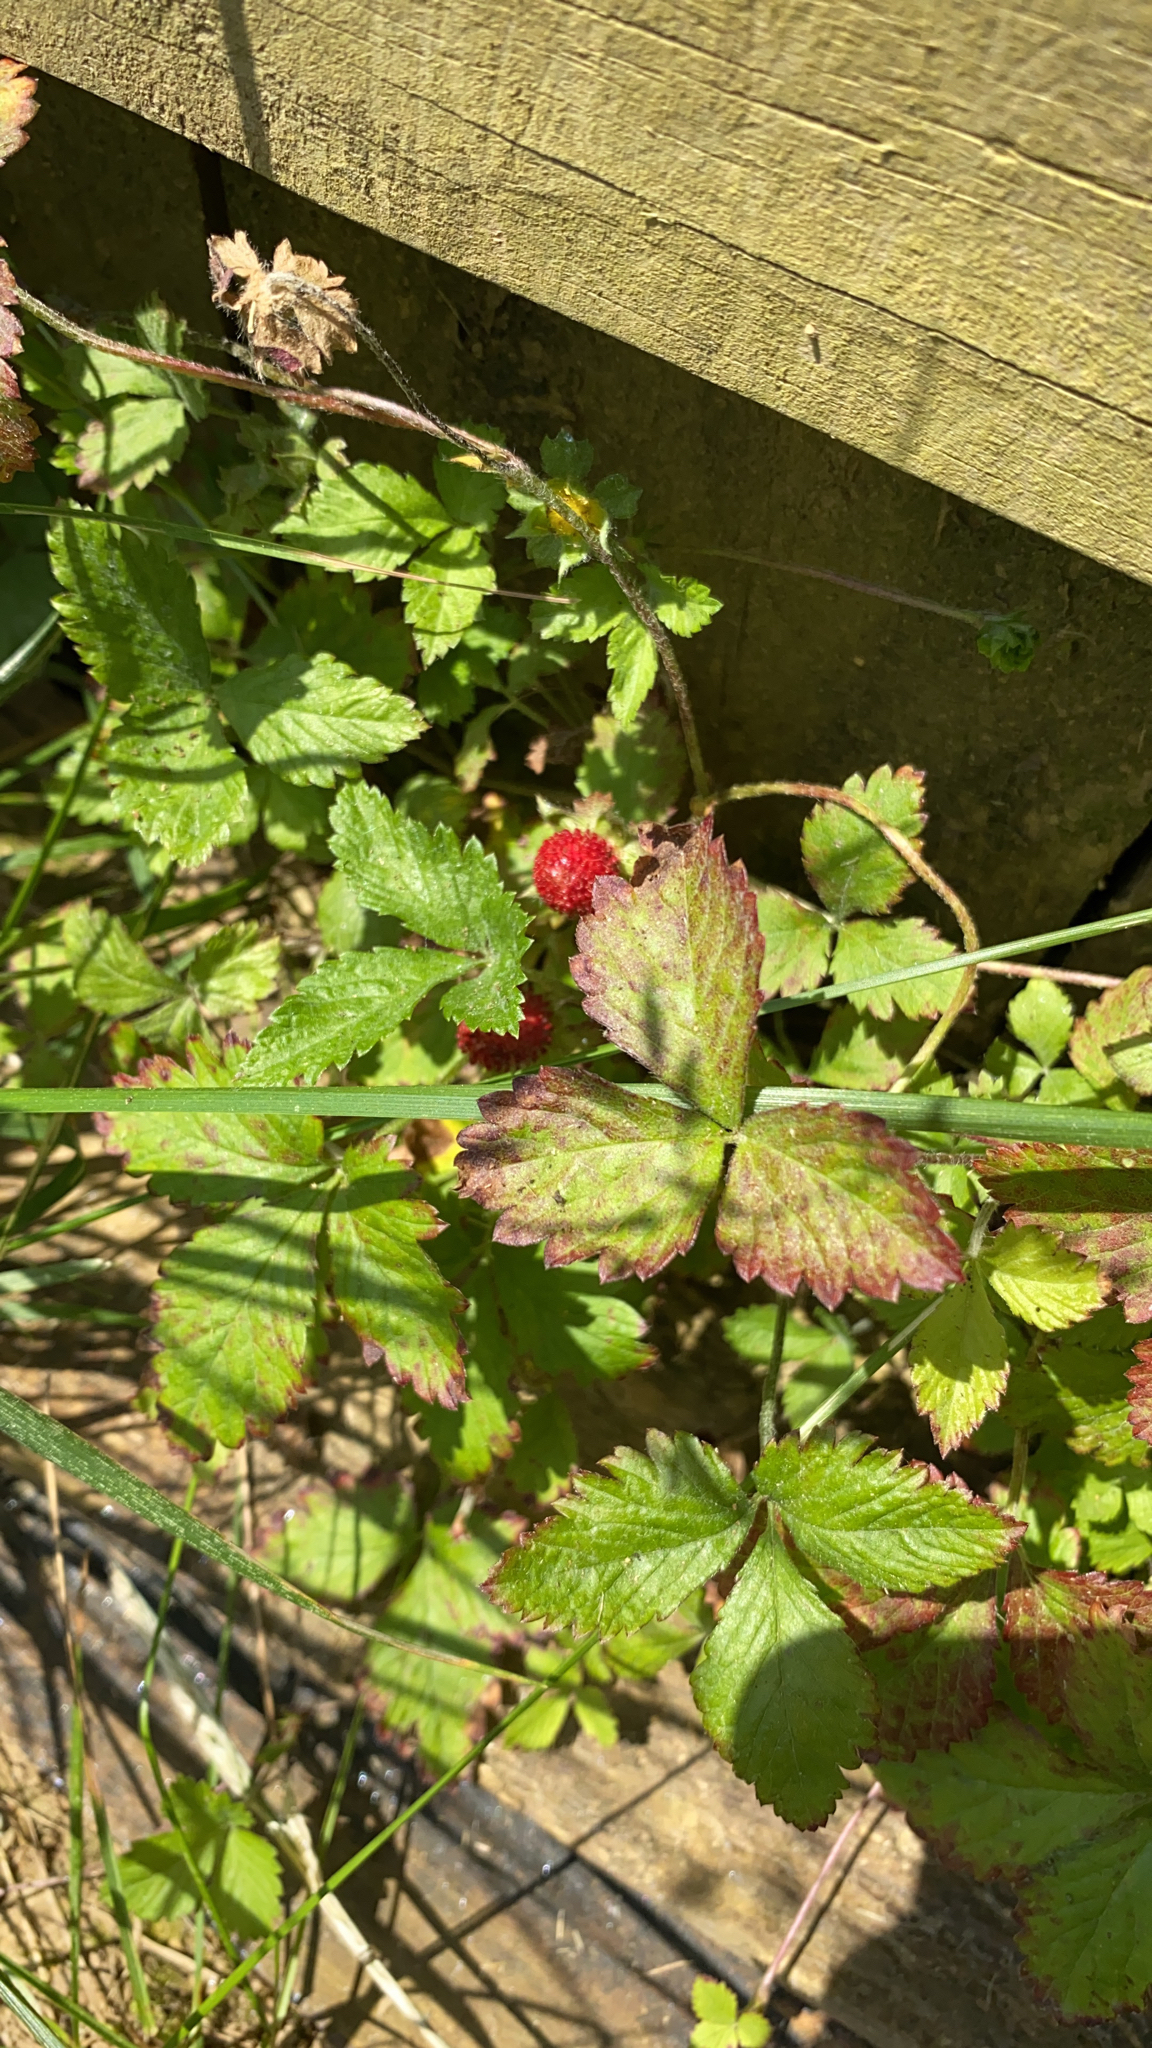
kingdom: Plantae
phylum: Tracheophyta
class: Magnoliopsida
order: Rosales
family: Rosaceae
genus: Potentilla
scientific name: Potentilla indica
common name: Yellow-flowered strawberry
